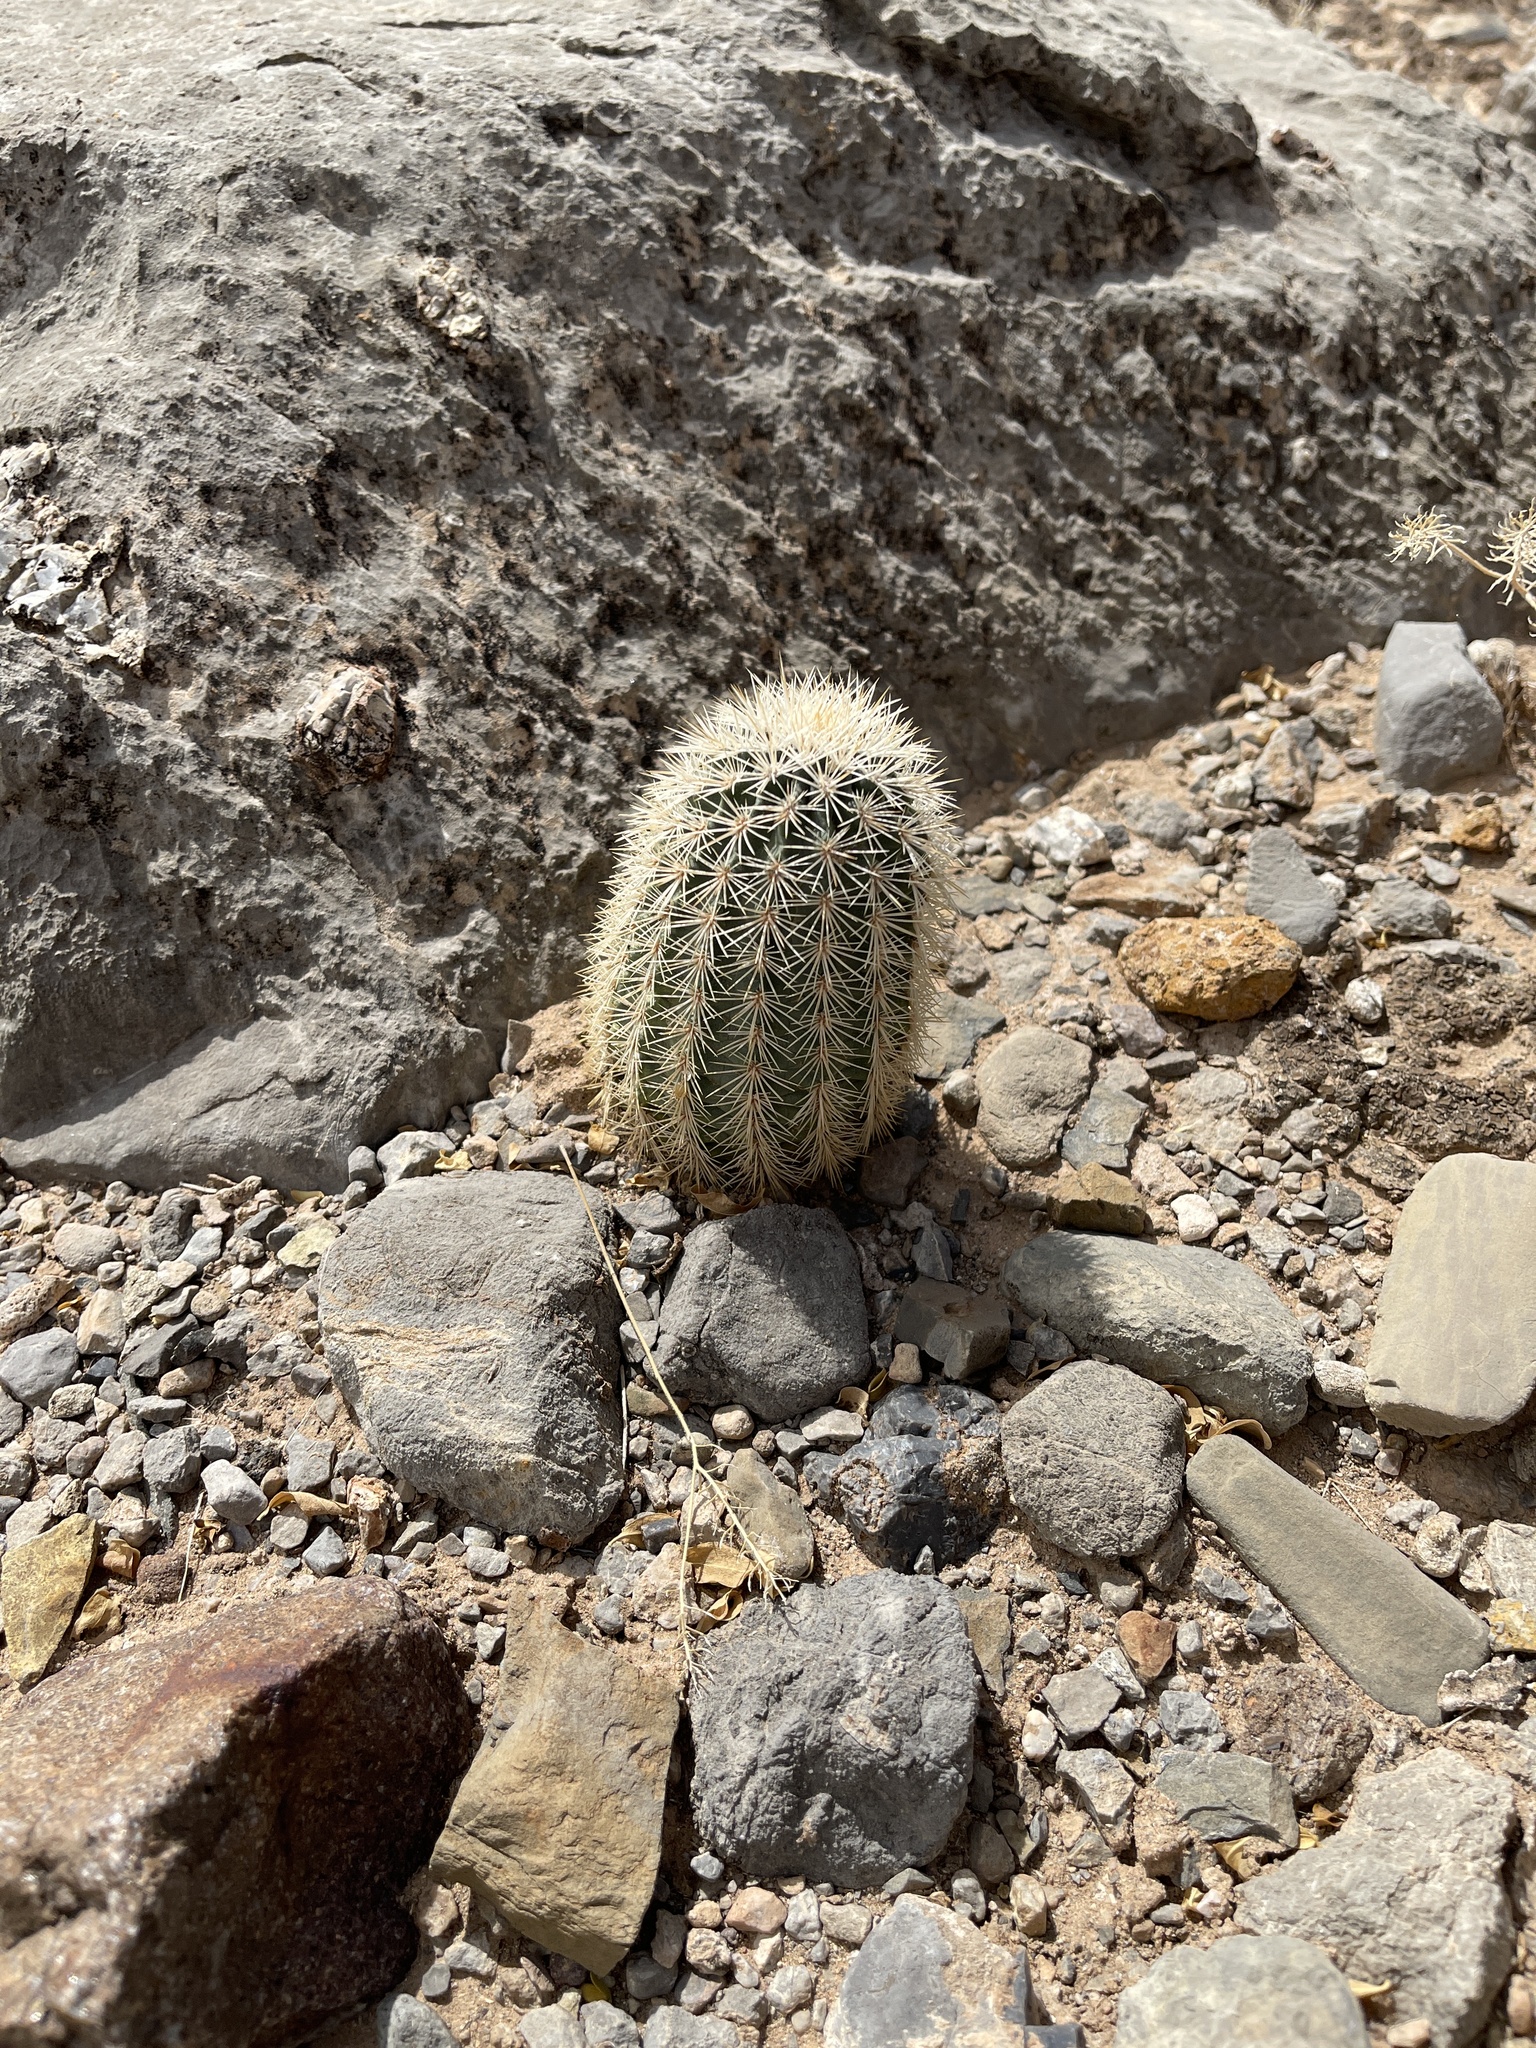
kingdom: Plantae
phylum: Tracheophyta
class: Magnoliopsida
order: Caryophyllales
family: Cactaceae
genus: Echinocereus
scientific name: Echinocereus dasyacanthus
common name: Spiny hedgehog cactus
